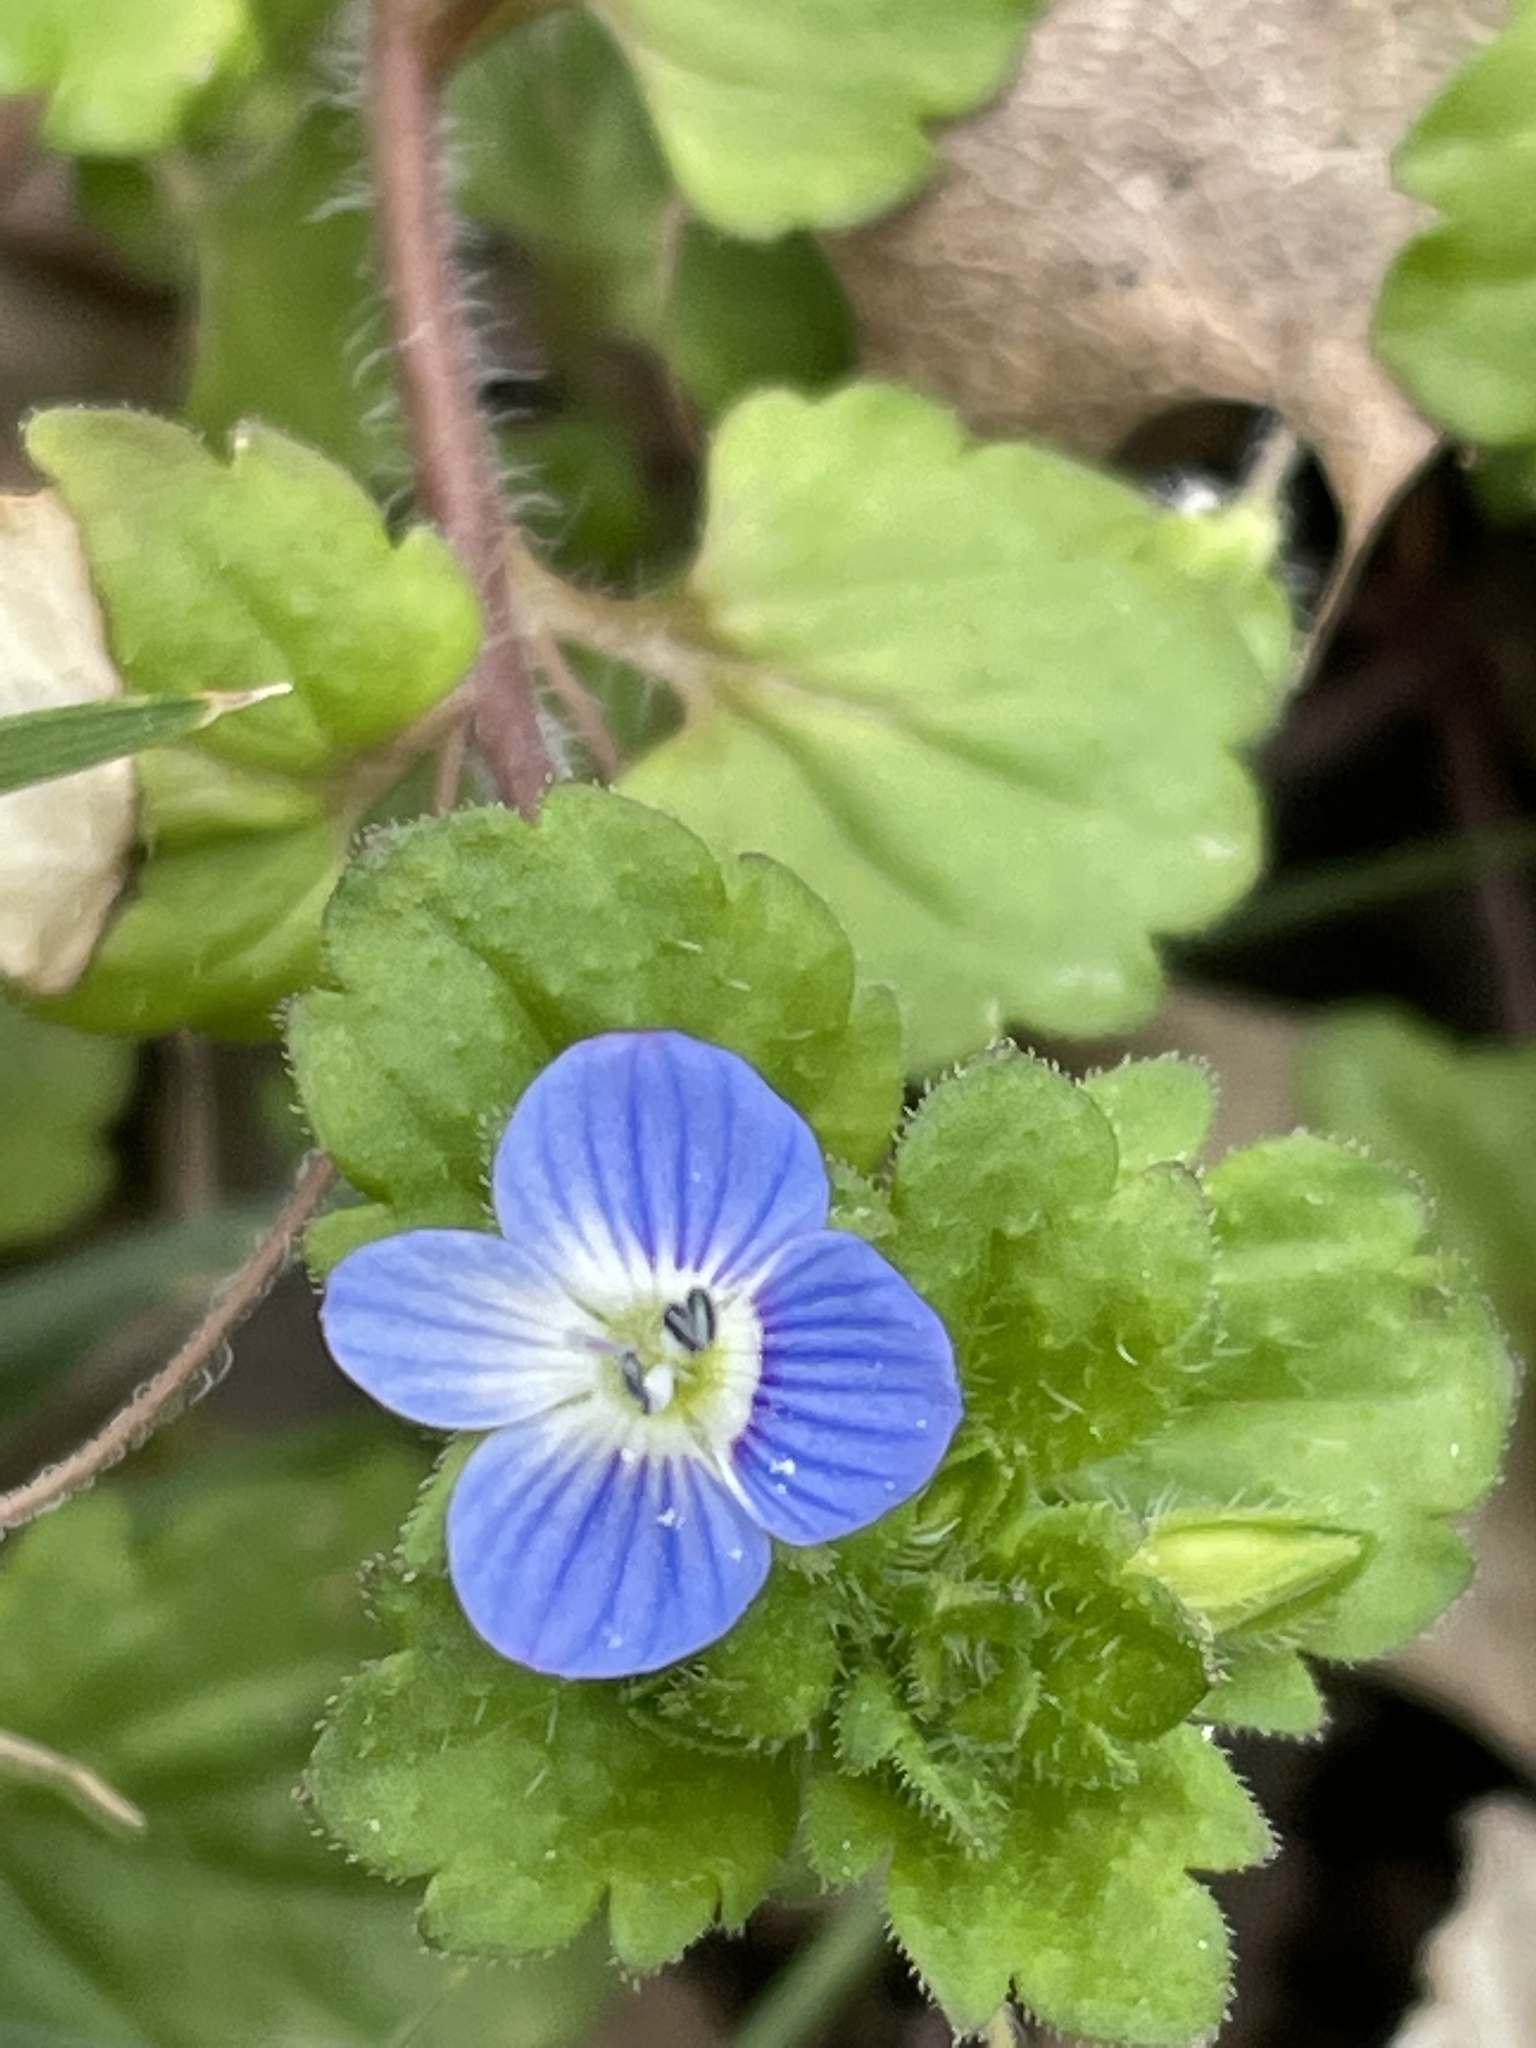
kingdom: Plantae
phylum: Tracheophyta
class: Magnoliopsida
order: Lamiales
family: Plantaginaceae
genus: Veronica
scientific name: Veronica persica
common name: Common field-speedwell
